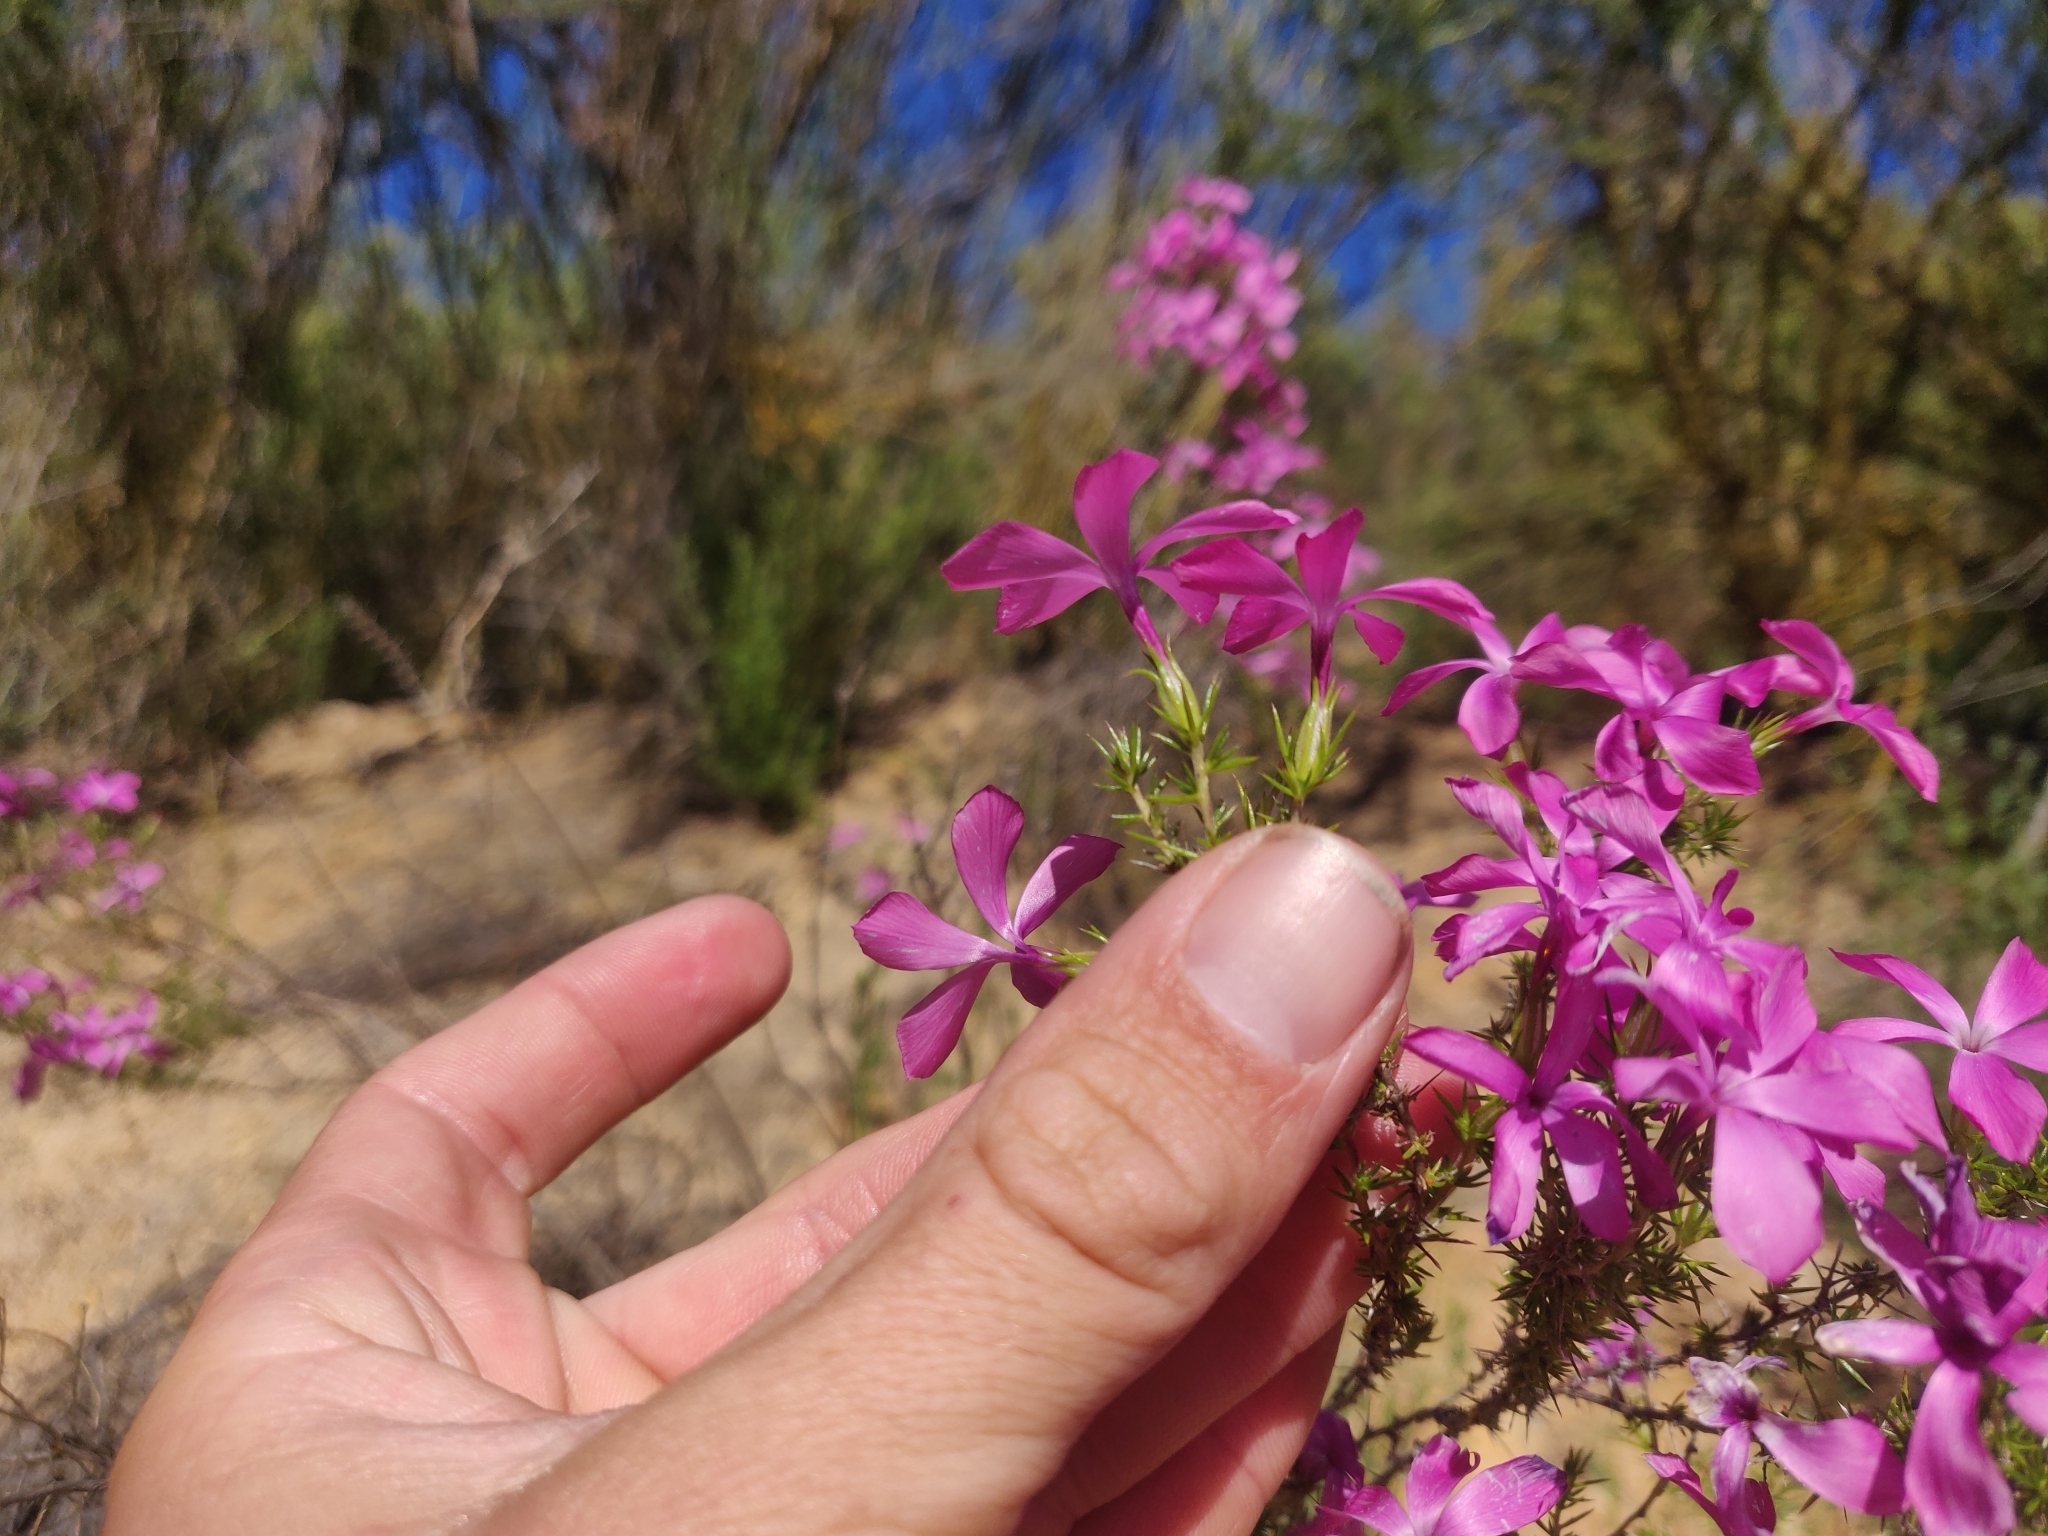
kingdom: Plantae
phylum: Tracheophyta
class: Magnoliopsida
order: Ericales
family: Polemoniaceae
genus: Linanthus
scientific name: Linanthus californicus
